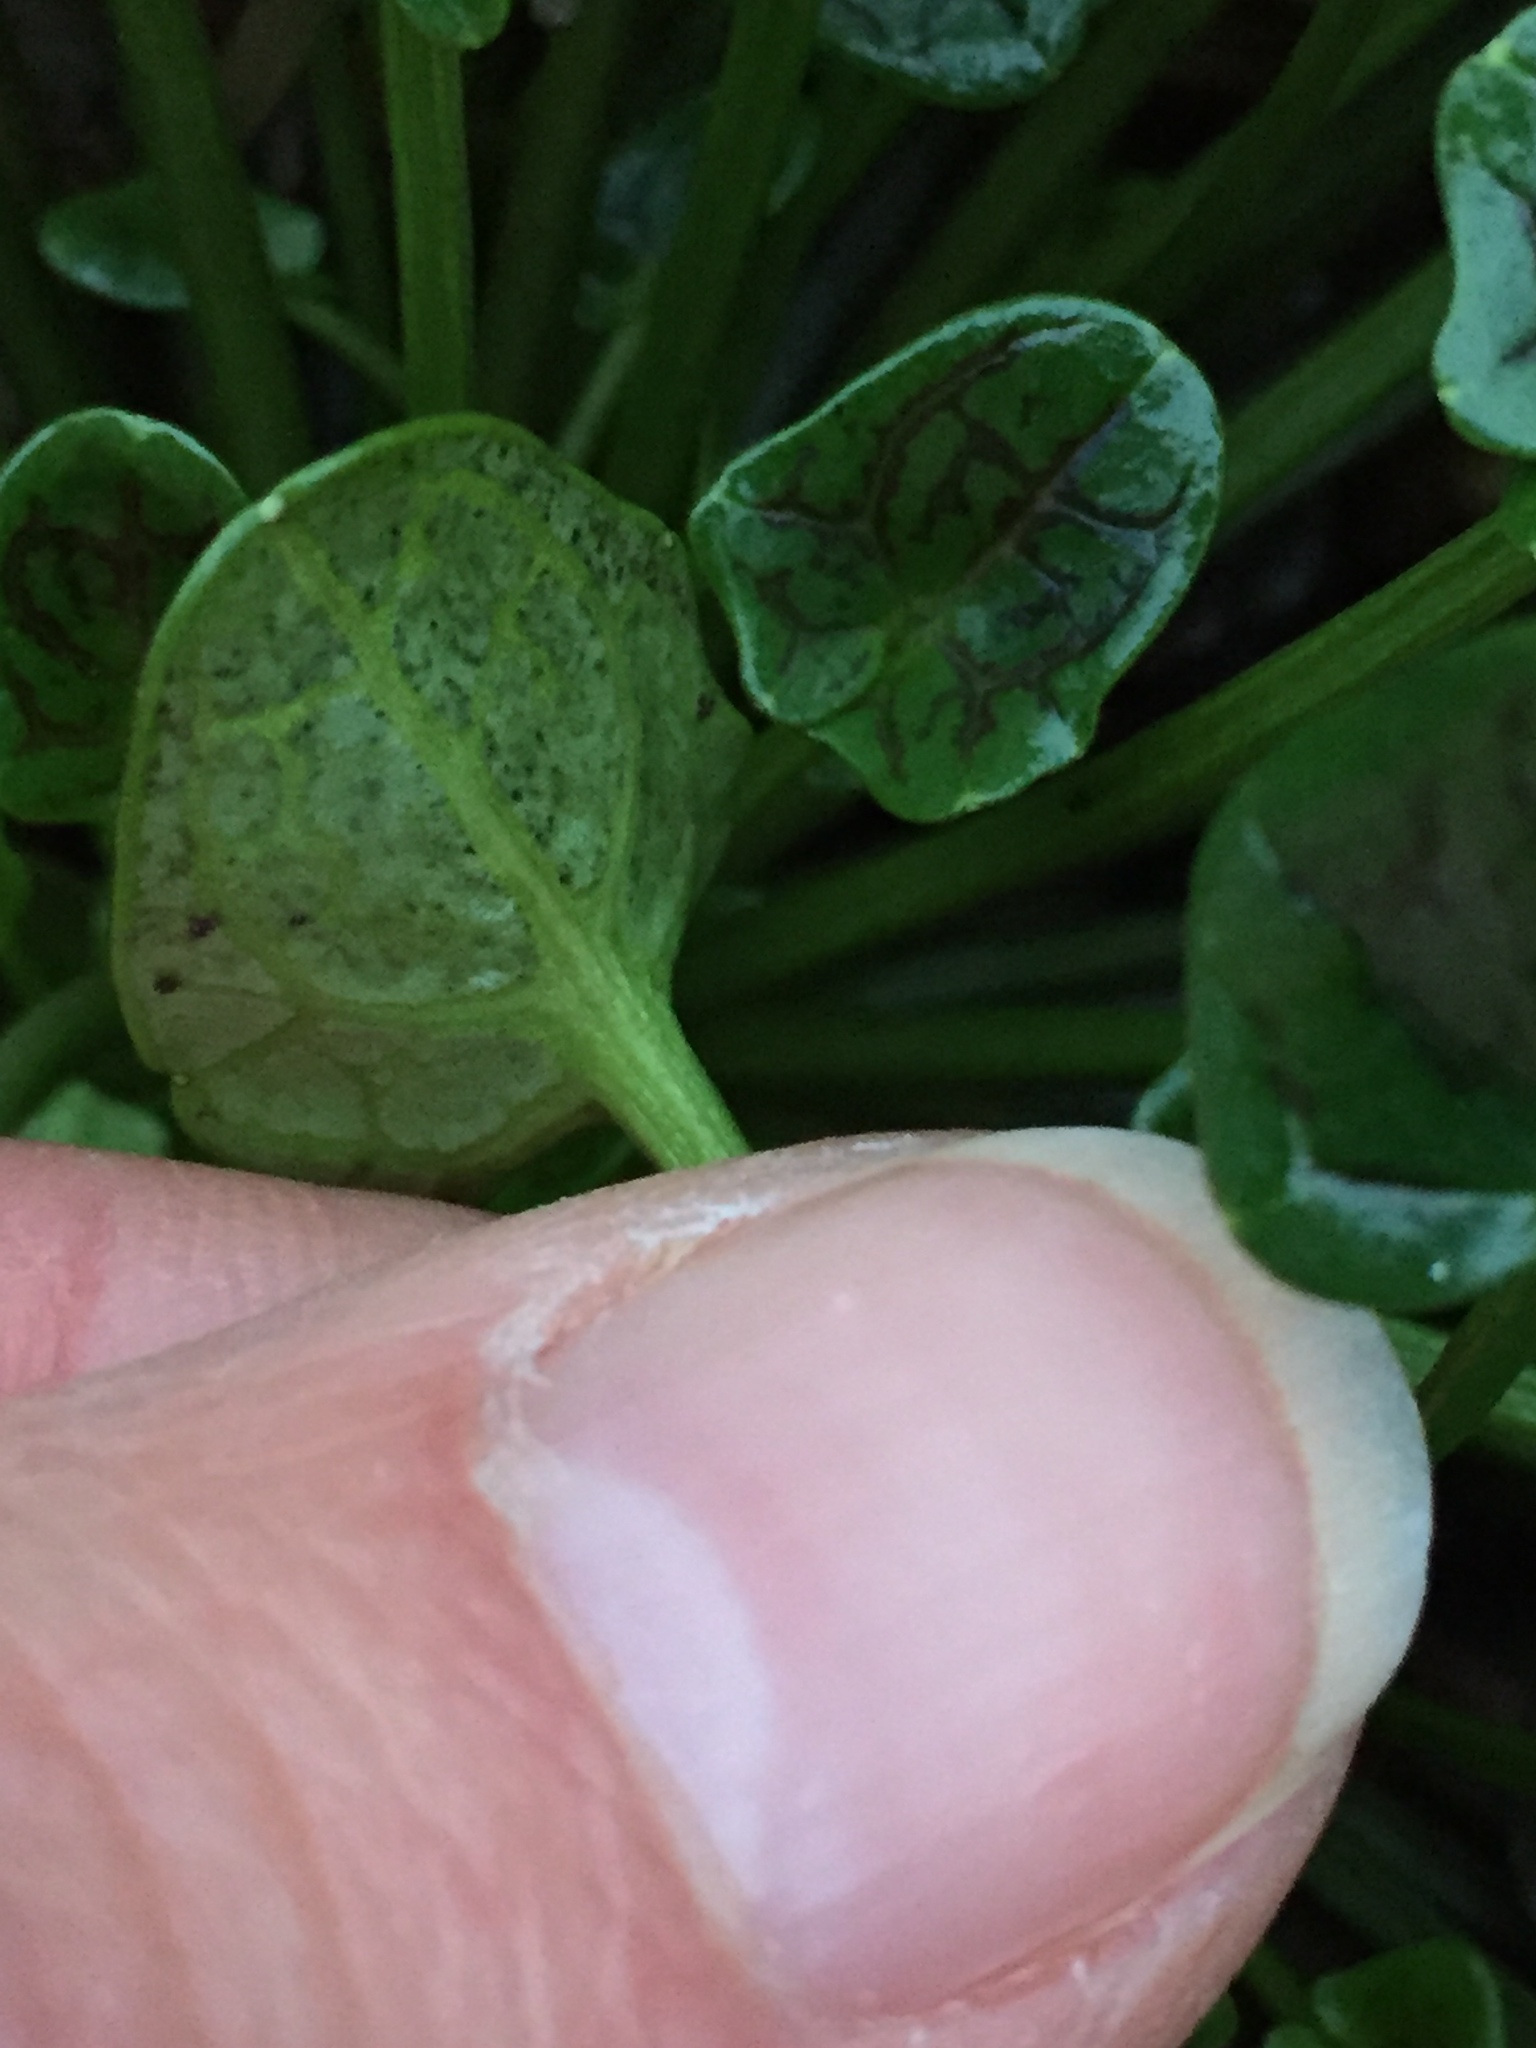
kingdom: Plantae
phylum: Tracheophyta
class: Magnoliopsida
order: Brassicales
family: Brassicaceae
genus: Cochlearia
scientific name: Cochlearia officinalis
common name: Scurvy-grass
